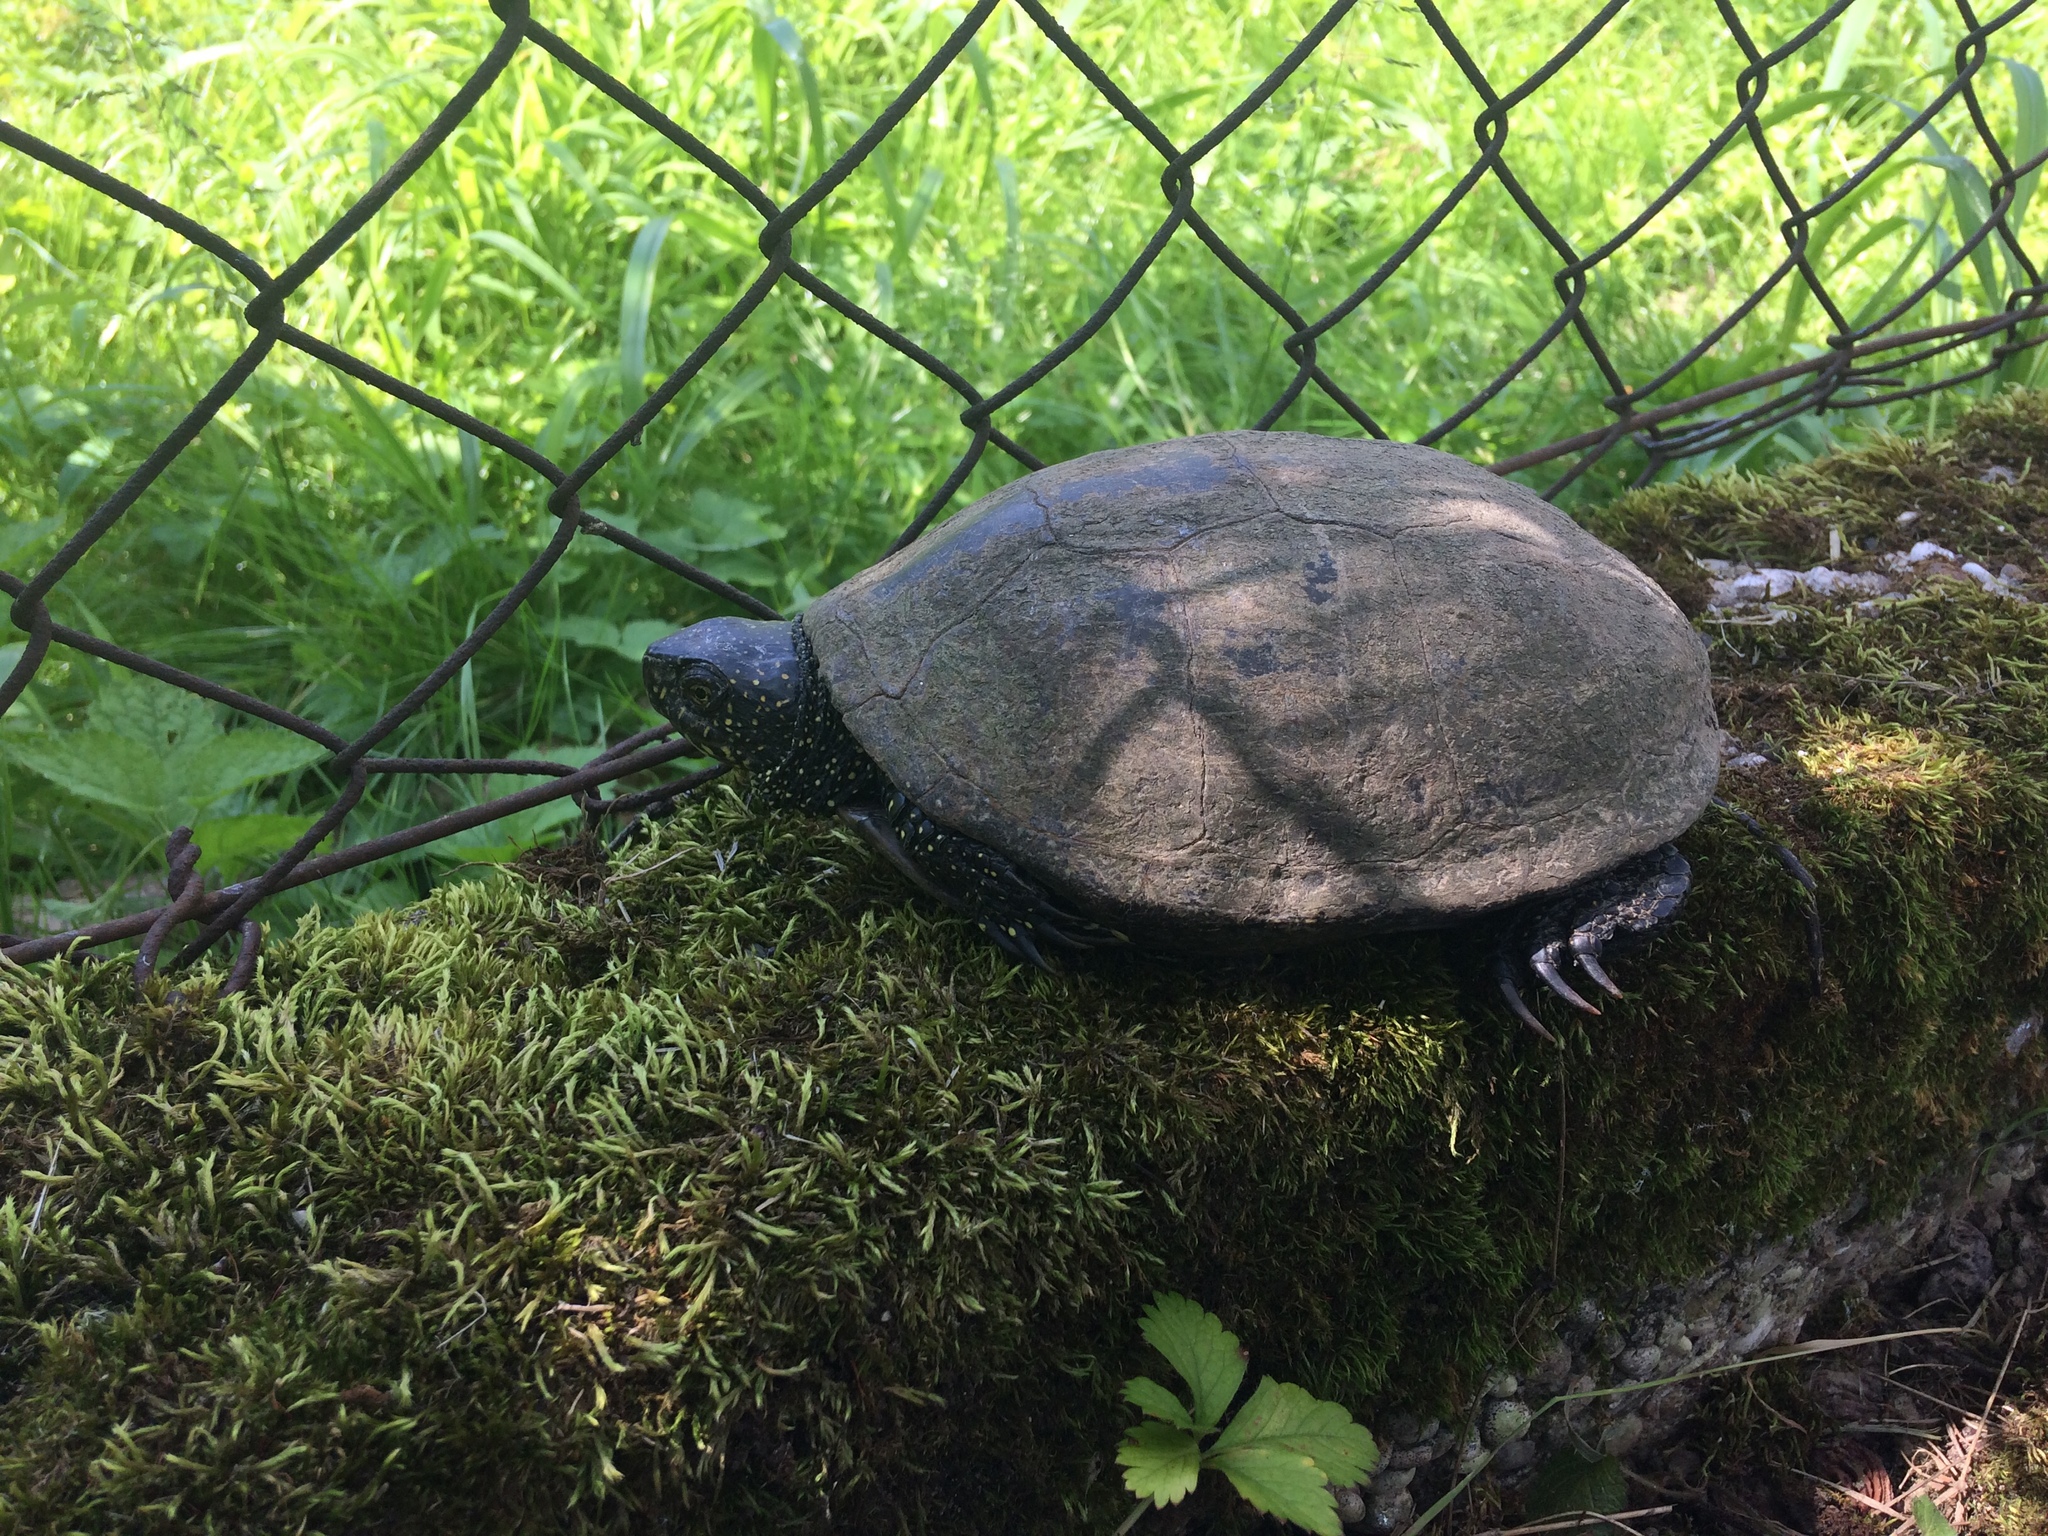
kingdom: Animalia
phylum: Chordata
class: Testudines
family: Emydidae
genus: Emys
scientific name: Emys orbicularis
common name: European pond turtle
